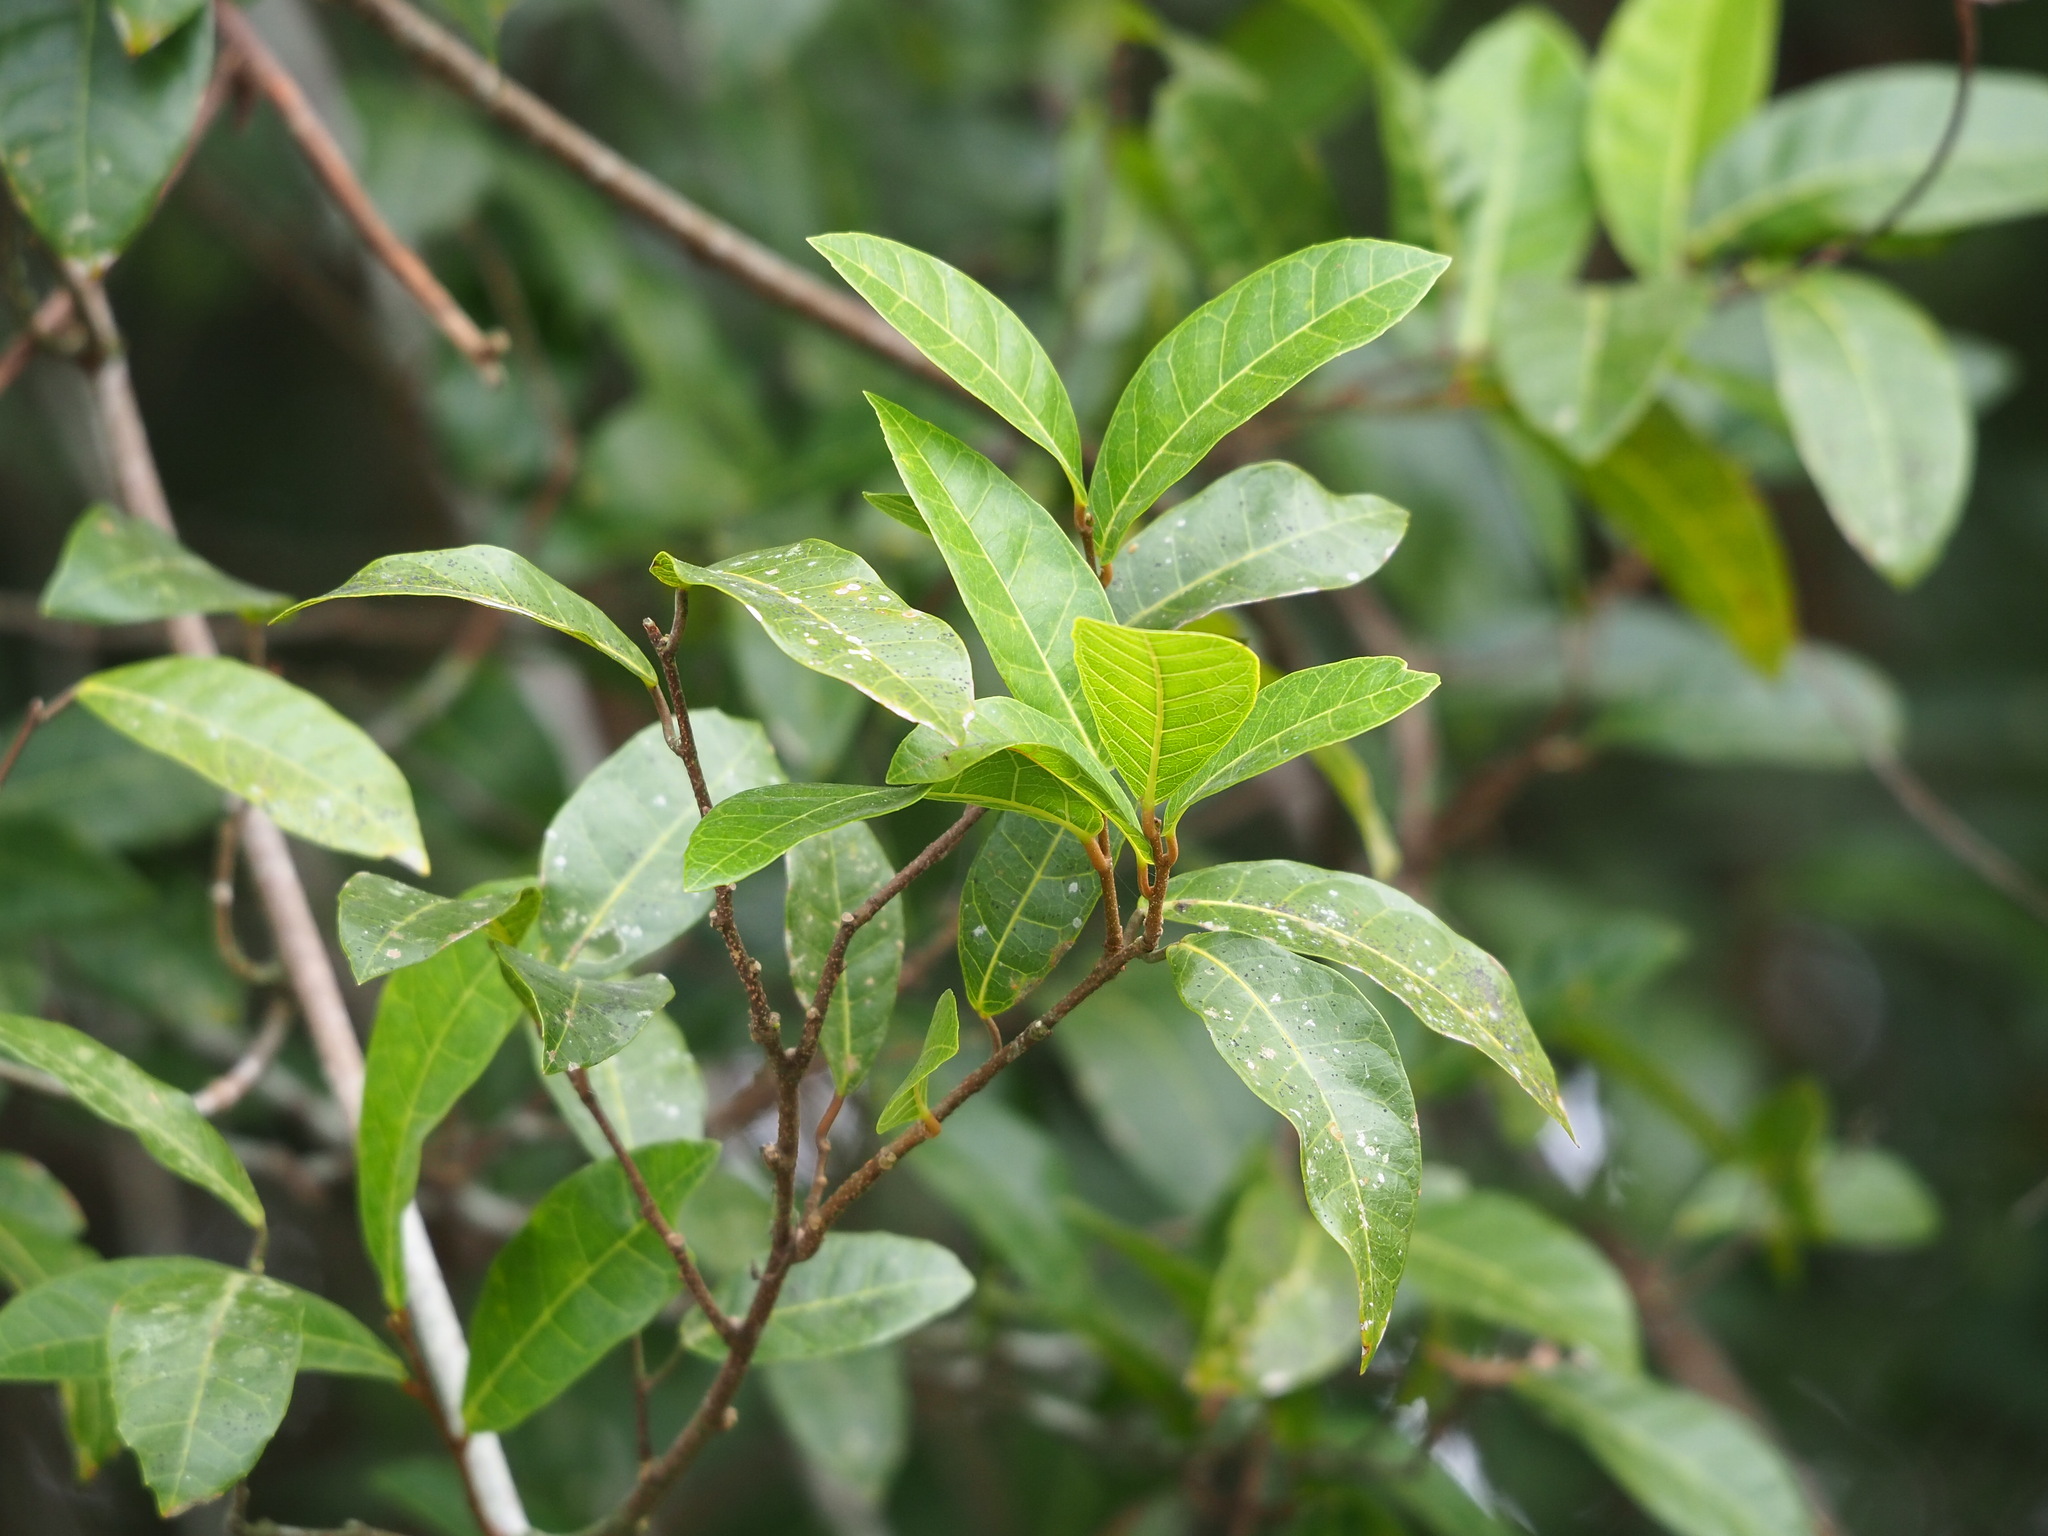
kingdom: Plantae
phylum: Tracheophyta
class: Magnoliopsida
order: Rosales
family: Moraceae
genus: Malaisia
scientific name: Malaisia scandens
